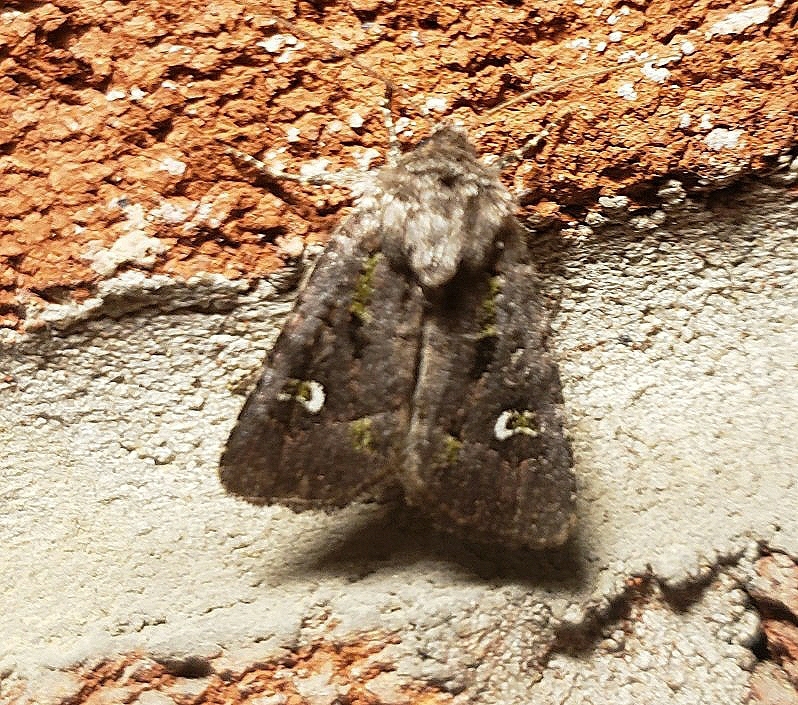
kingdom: Animalia
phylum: Arthropoda
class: Insecta
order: Lepidoptera
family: Noctuidae
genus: Lacinipolia
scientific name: Lacinipolia renigera
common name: Kidney-spotted minor
